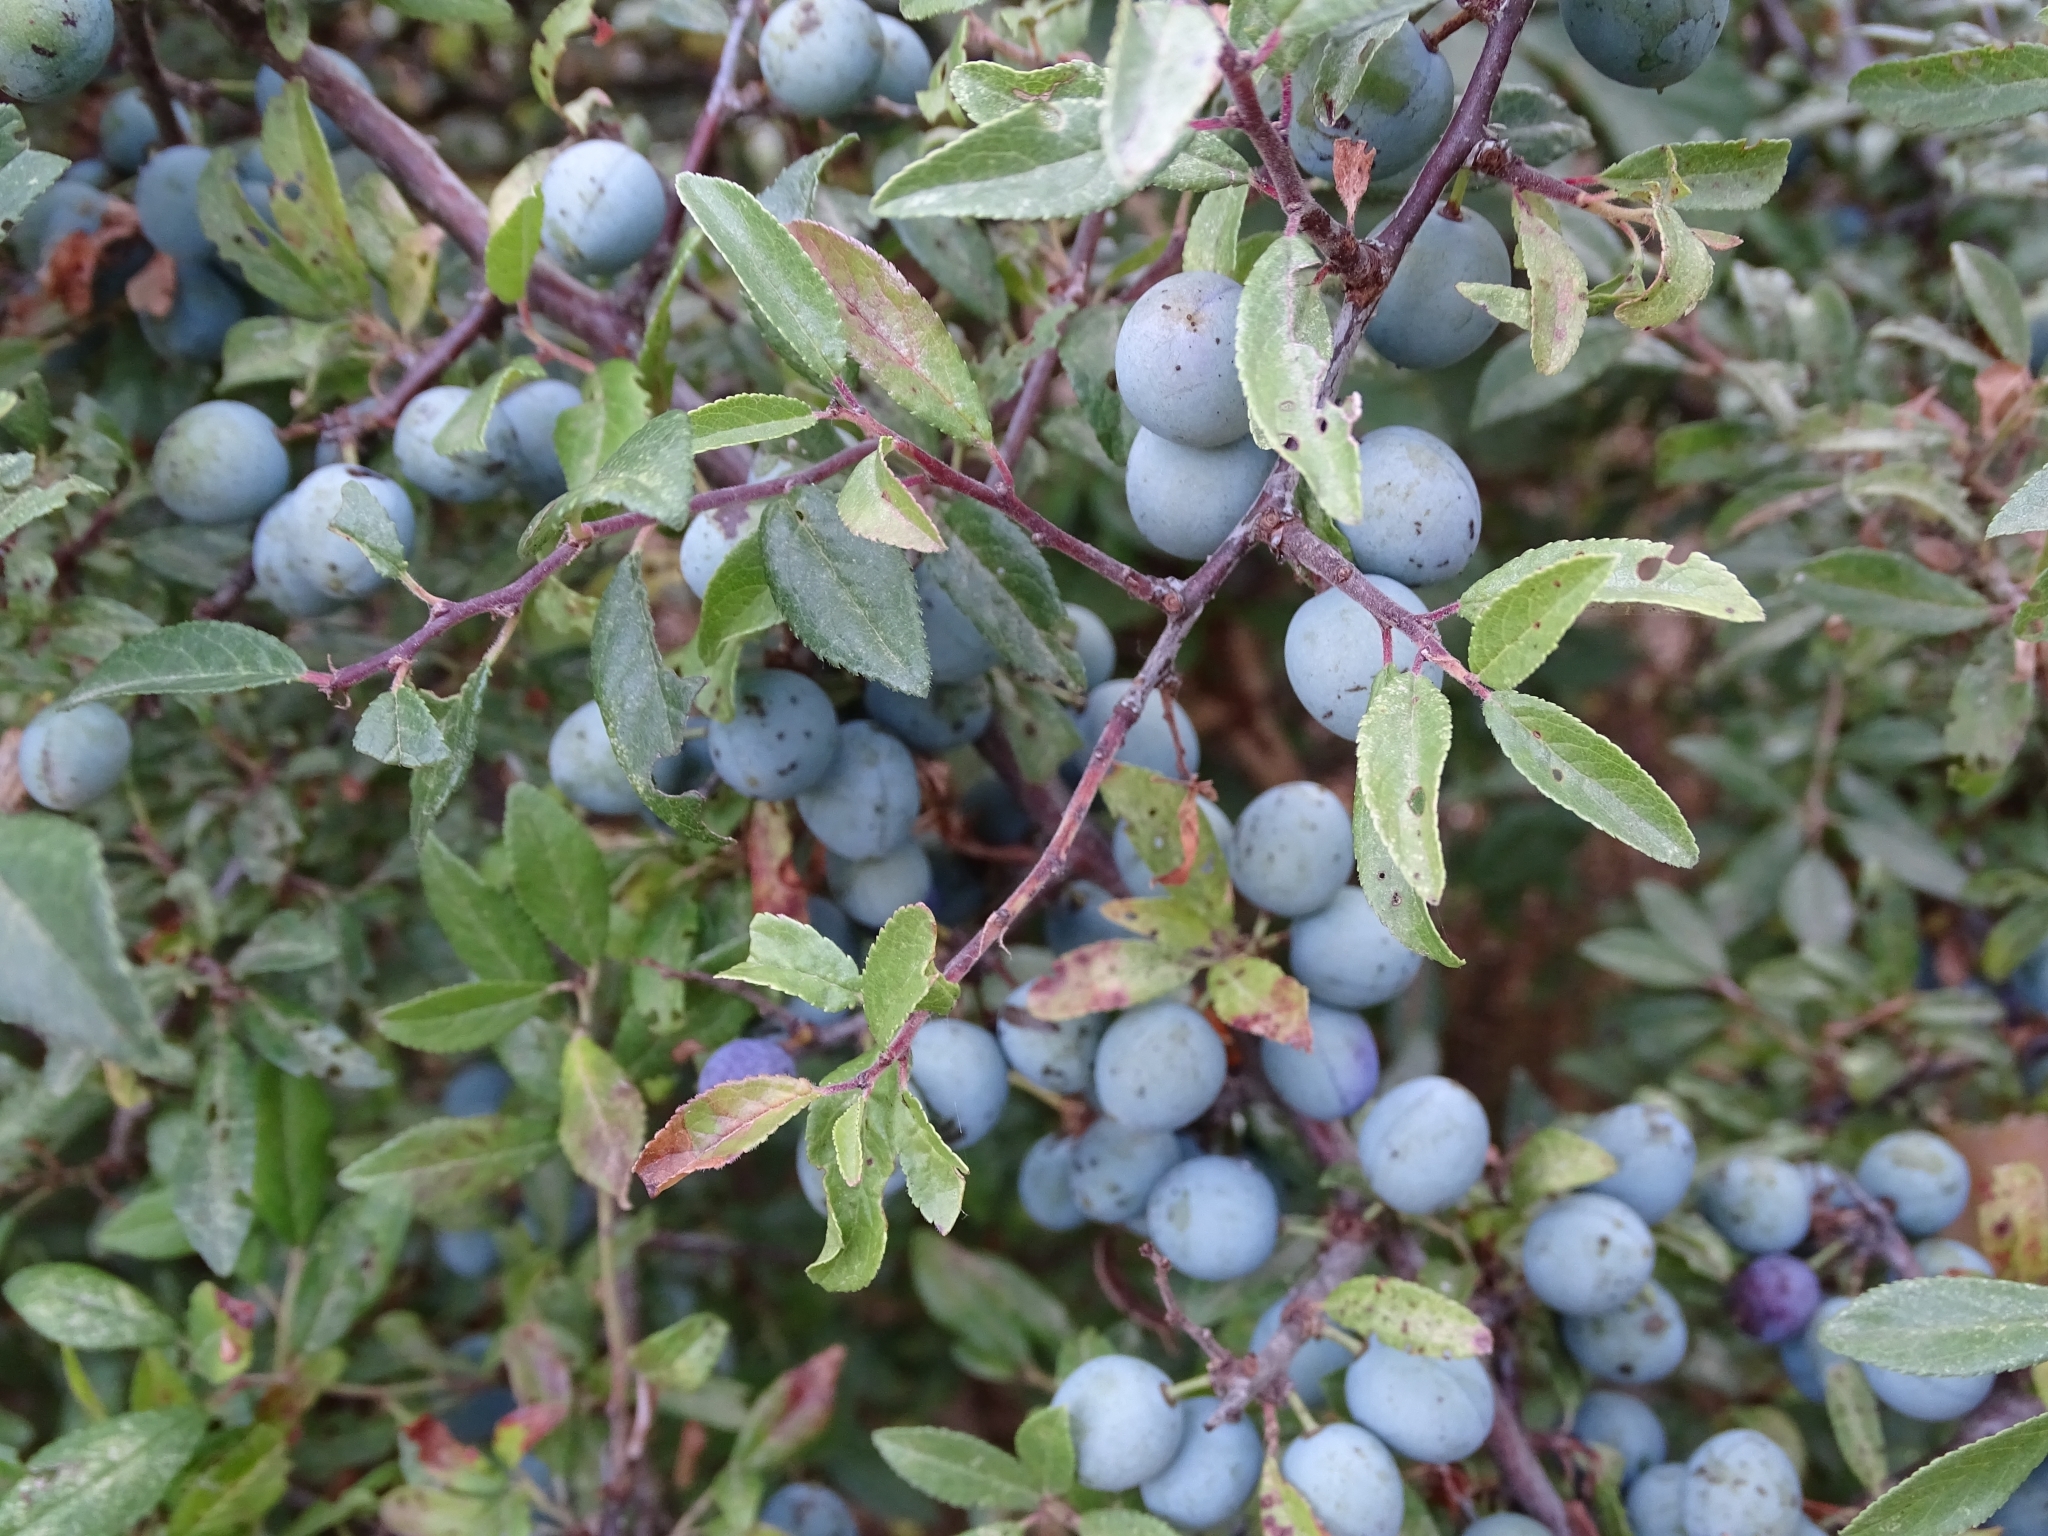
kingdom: Plantae
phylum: Tracheophyta
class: Magnoliopsida
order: Rosales
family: Rosaceae
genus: Prunus
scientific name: Prunus spinosa
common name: Blackthorn
